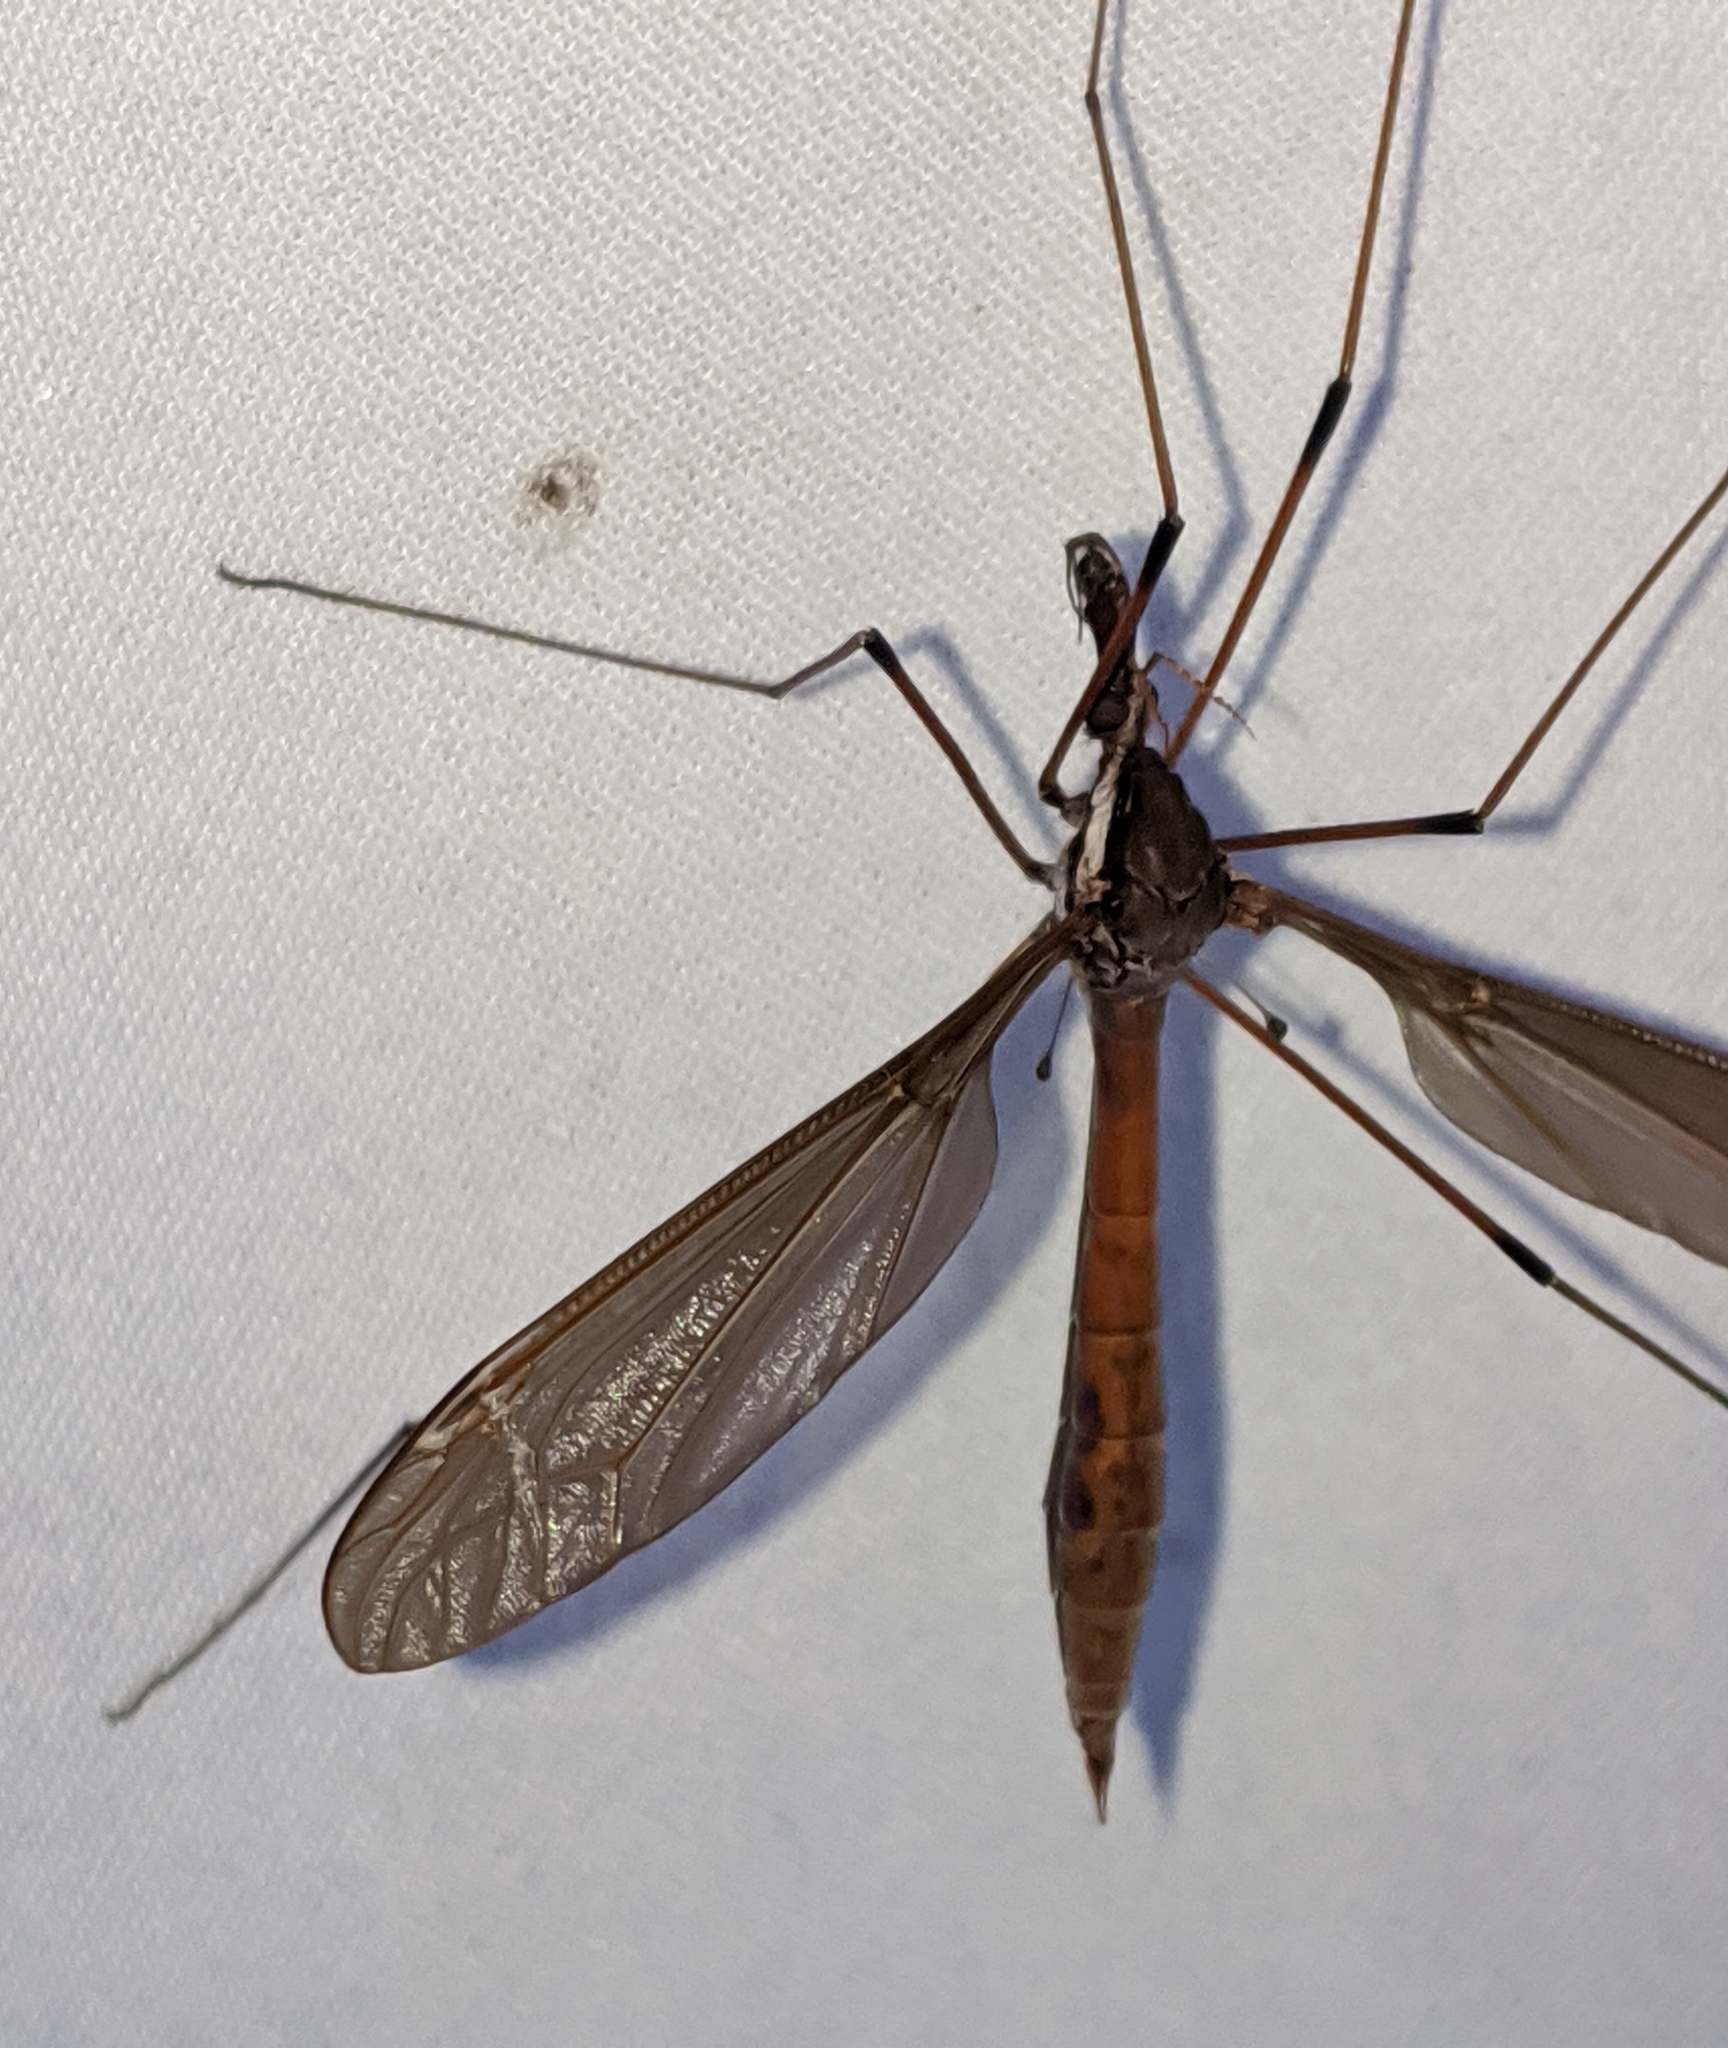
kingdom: Animalia
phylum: Arthropoda
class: Insecta
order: Diptera
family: Tipulidae
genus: Holorusia
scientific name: Holorusia hespera
